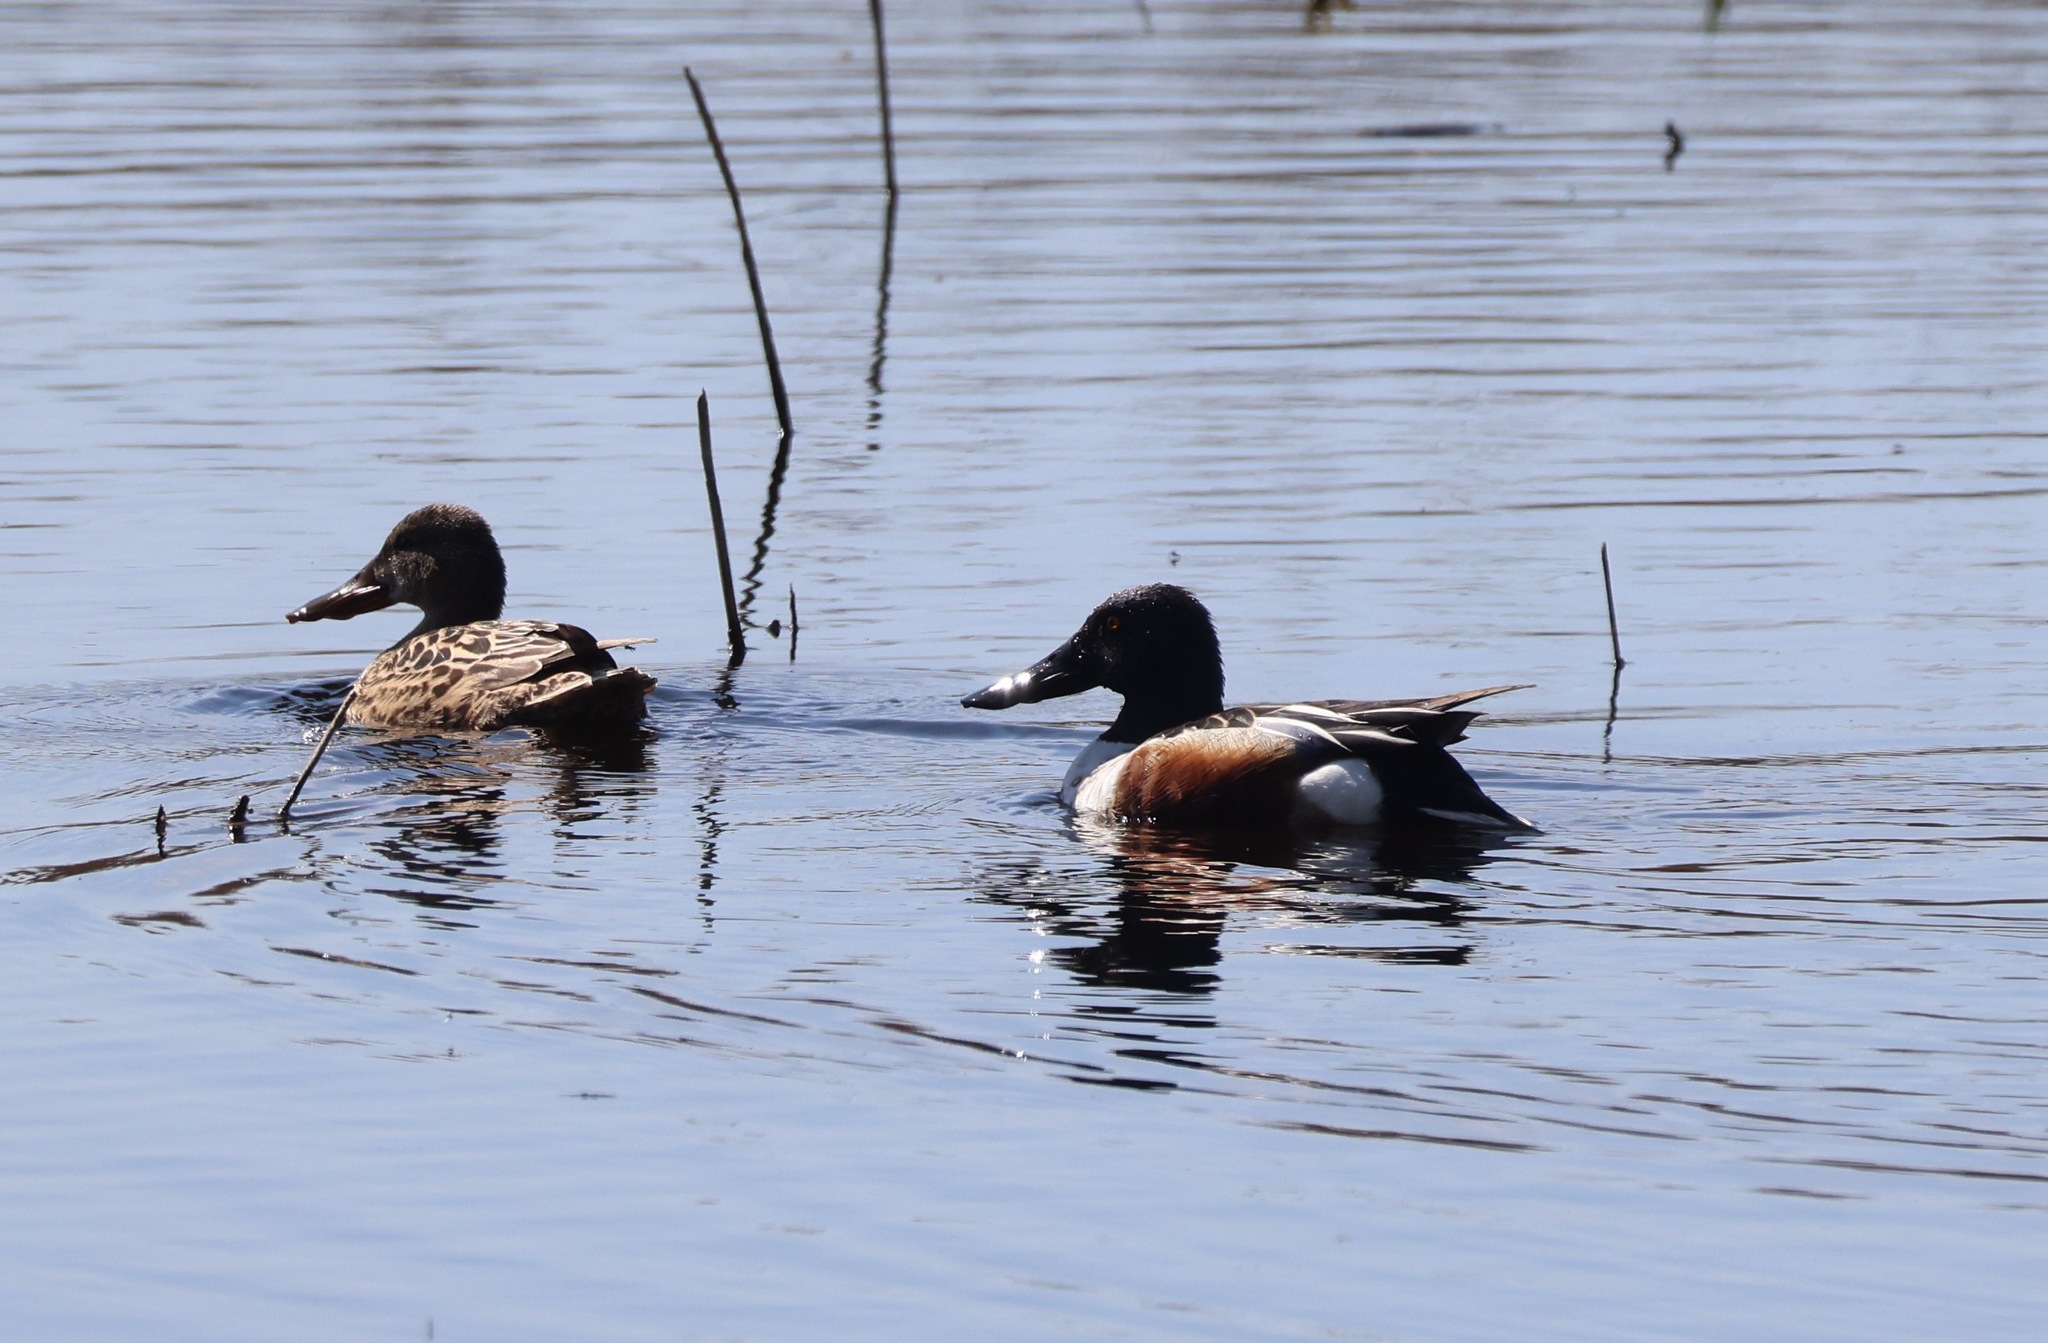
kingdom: Animalia
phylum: Chordata
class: Aves
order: Anseriformes
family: Anatidae
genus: Spatula
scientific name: Spatula clypeata
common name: Northern shoveler
